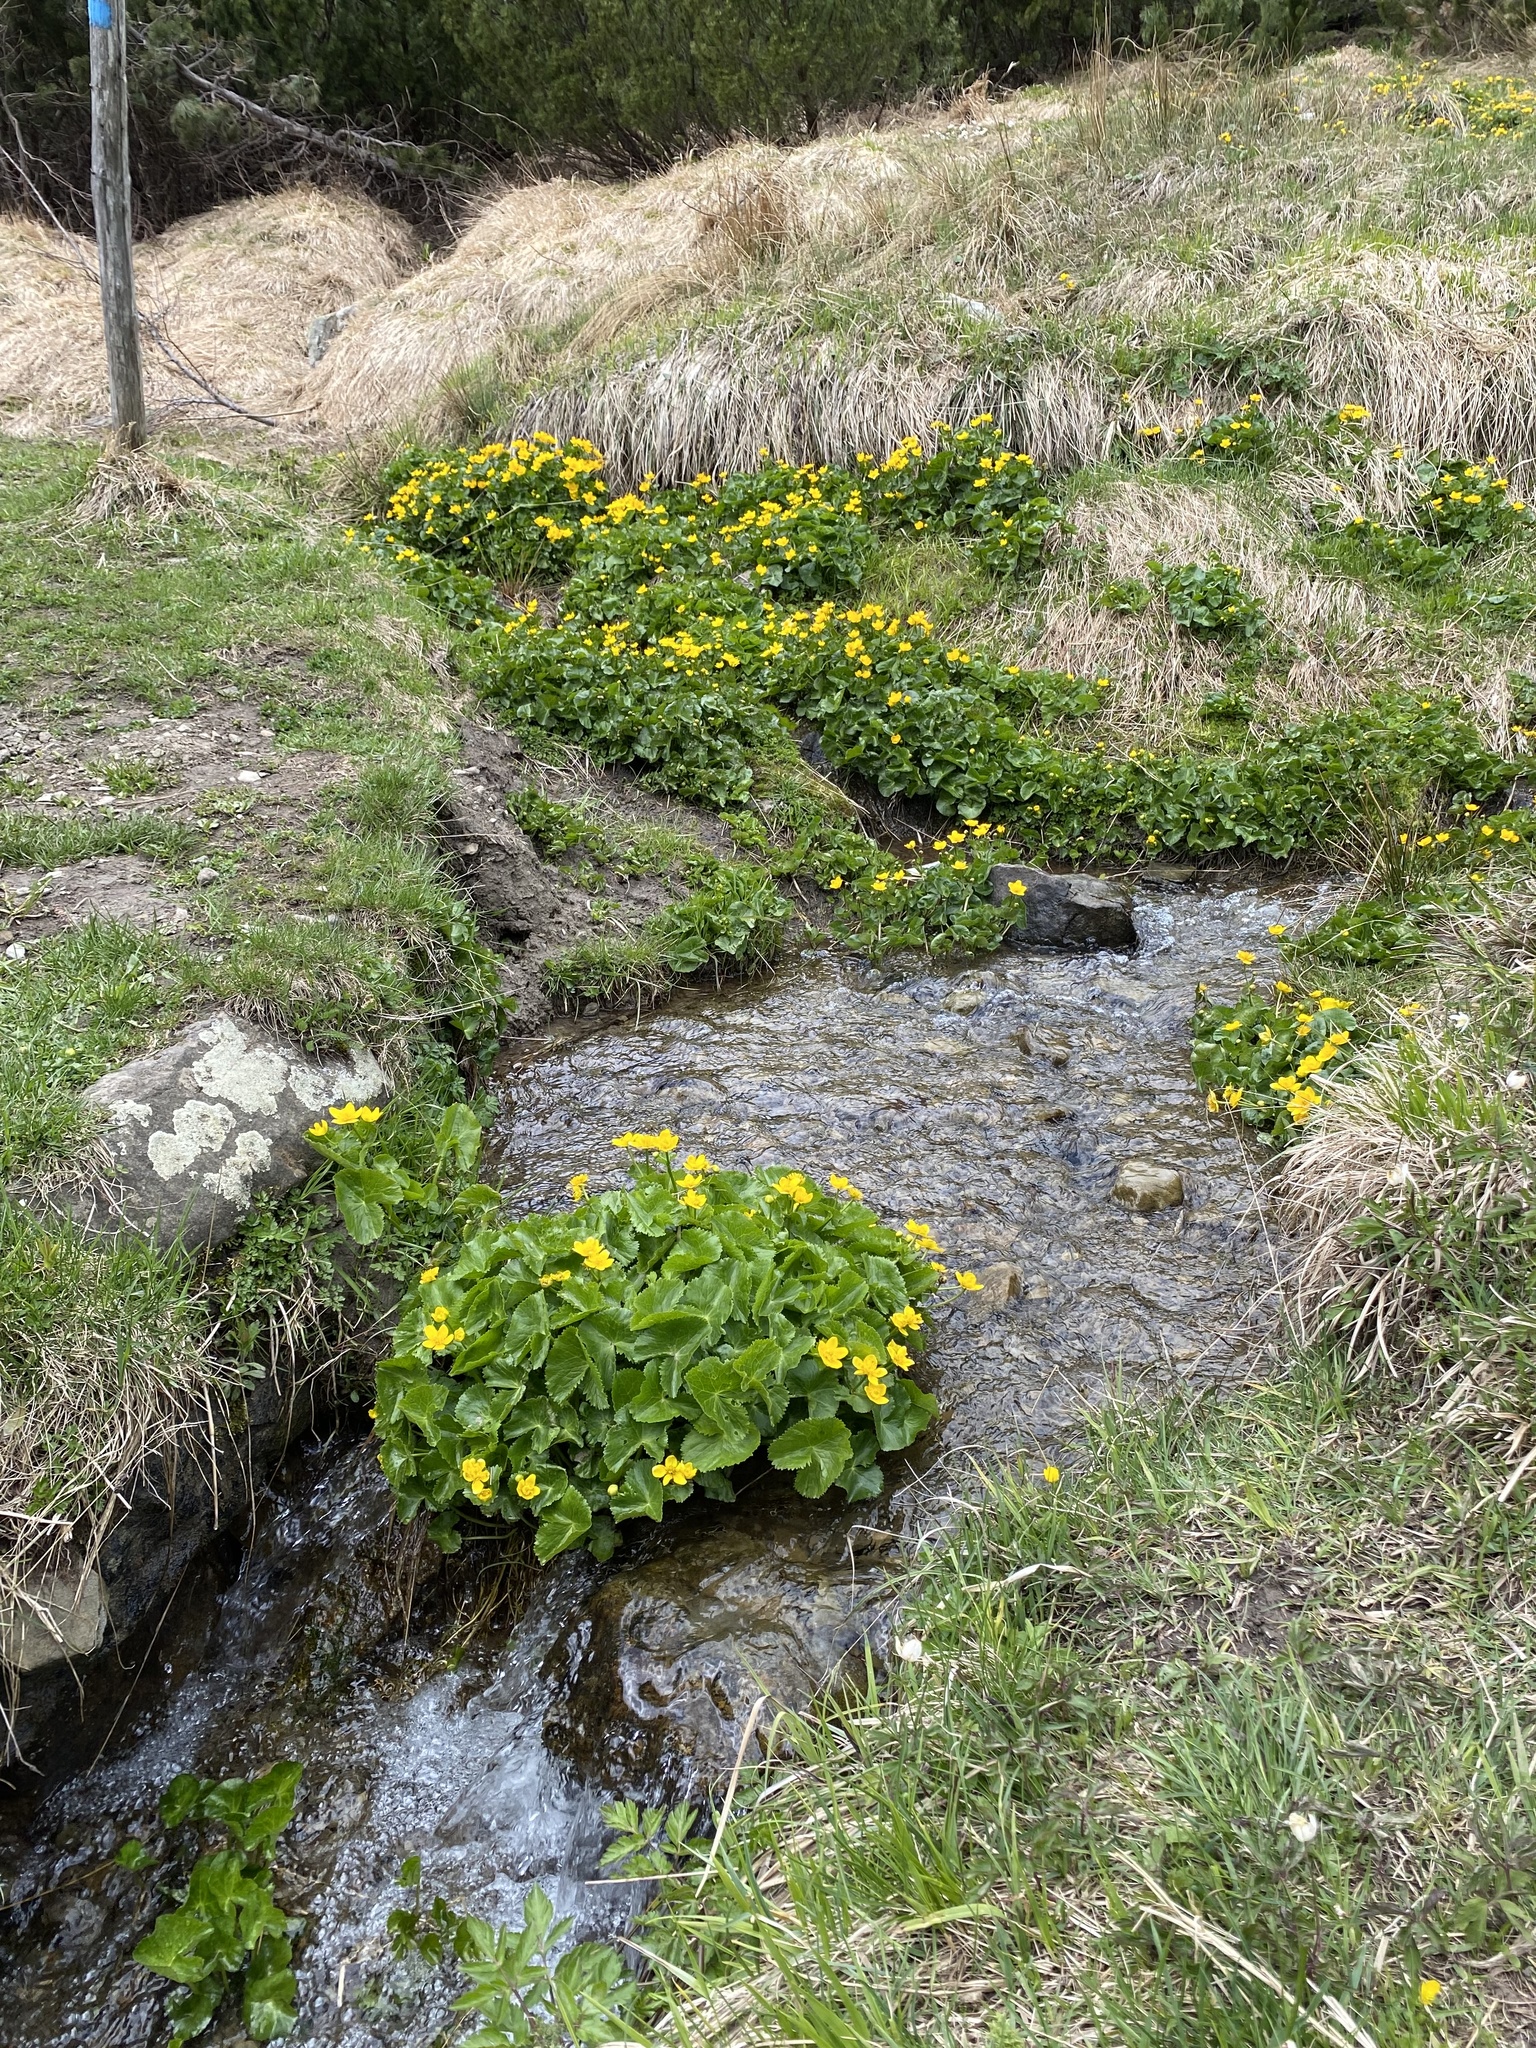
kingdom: Plantae
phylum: Tracheophyta
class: Magnoliopsida
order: Ranunculales
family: Ranunculaceae
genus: Caltha
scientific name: Caltha palustris
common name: Marsh marigold
